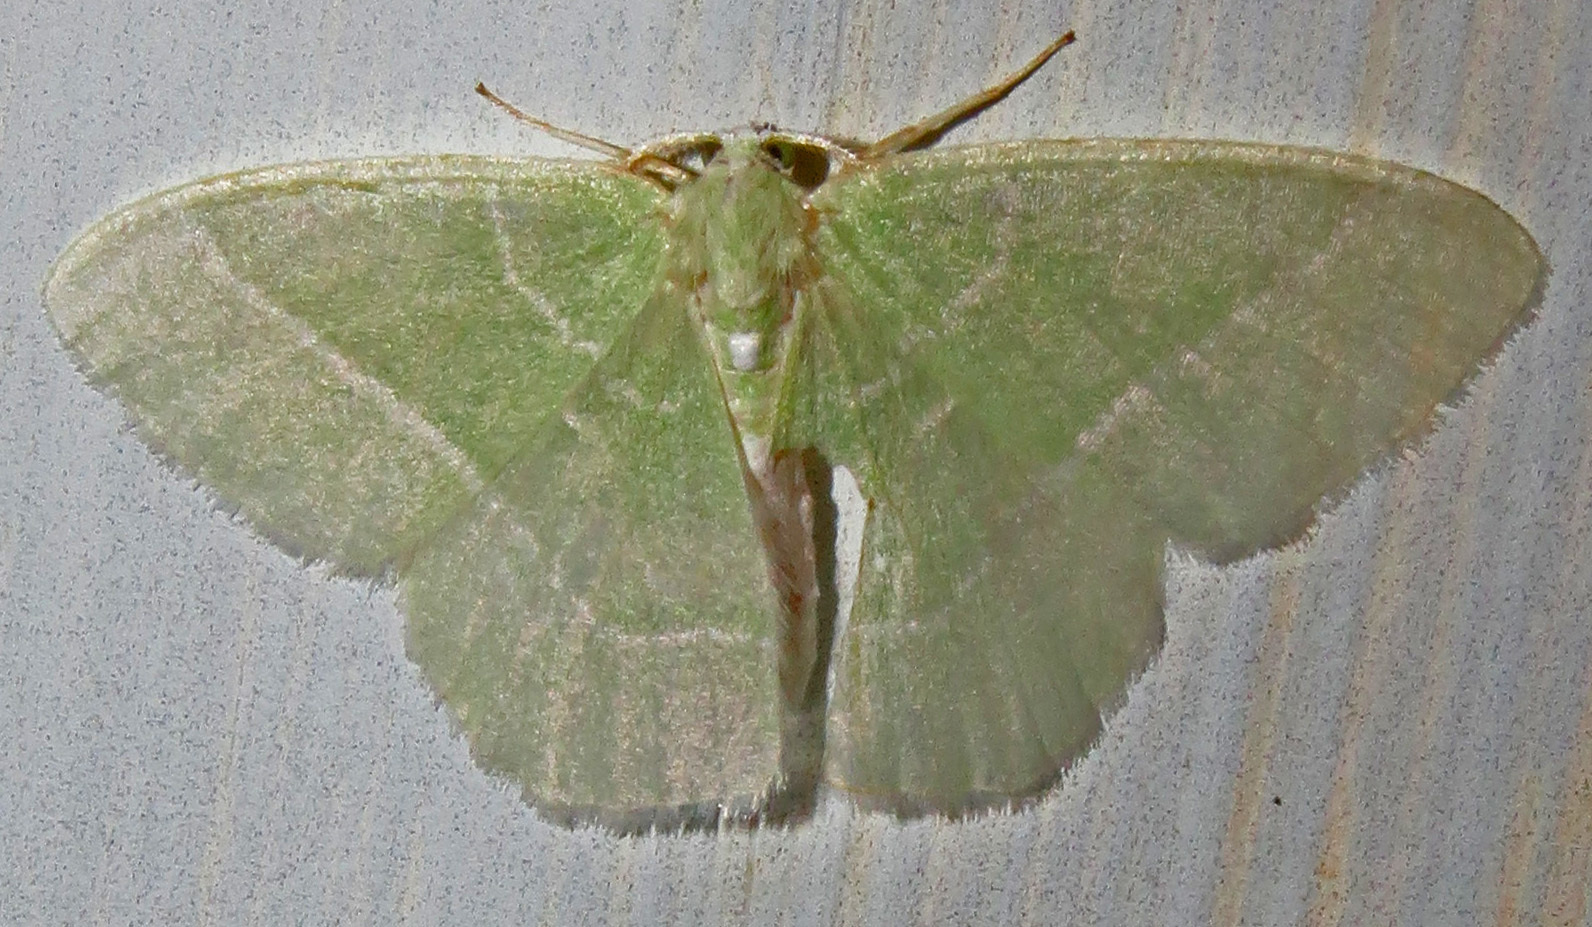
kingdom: Animalia
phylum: Arthropoda
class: Insecta
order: Lepidoptera
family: Geometridae
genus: Nemoria
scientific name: Nemoria mimosaria
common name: White-fringed emerald
